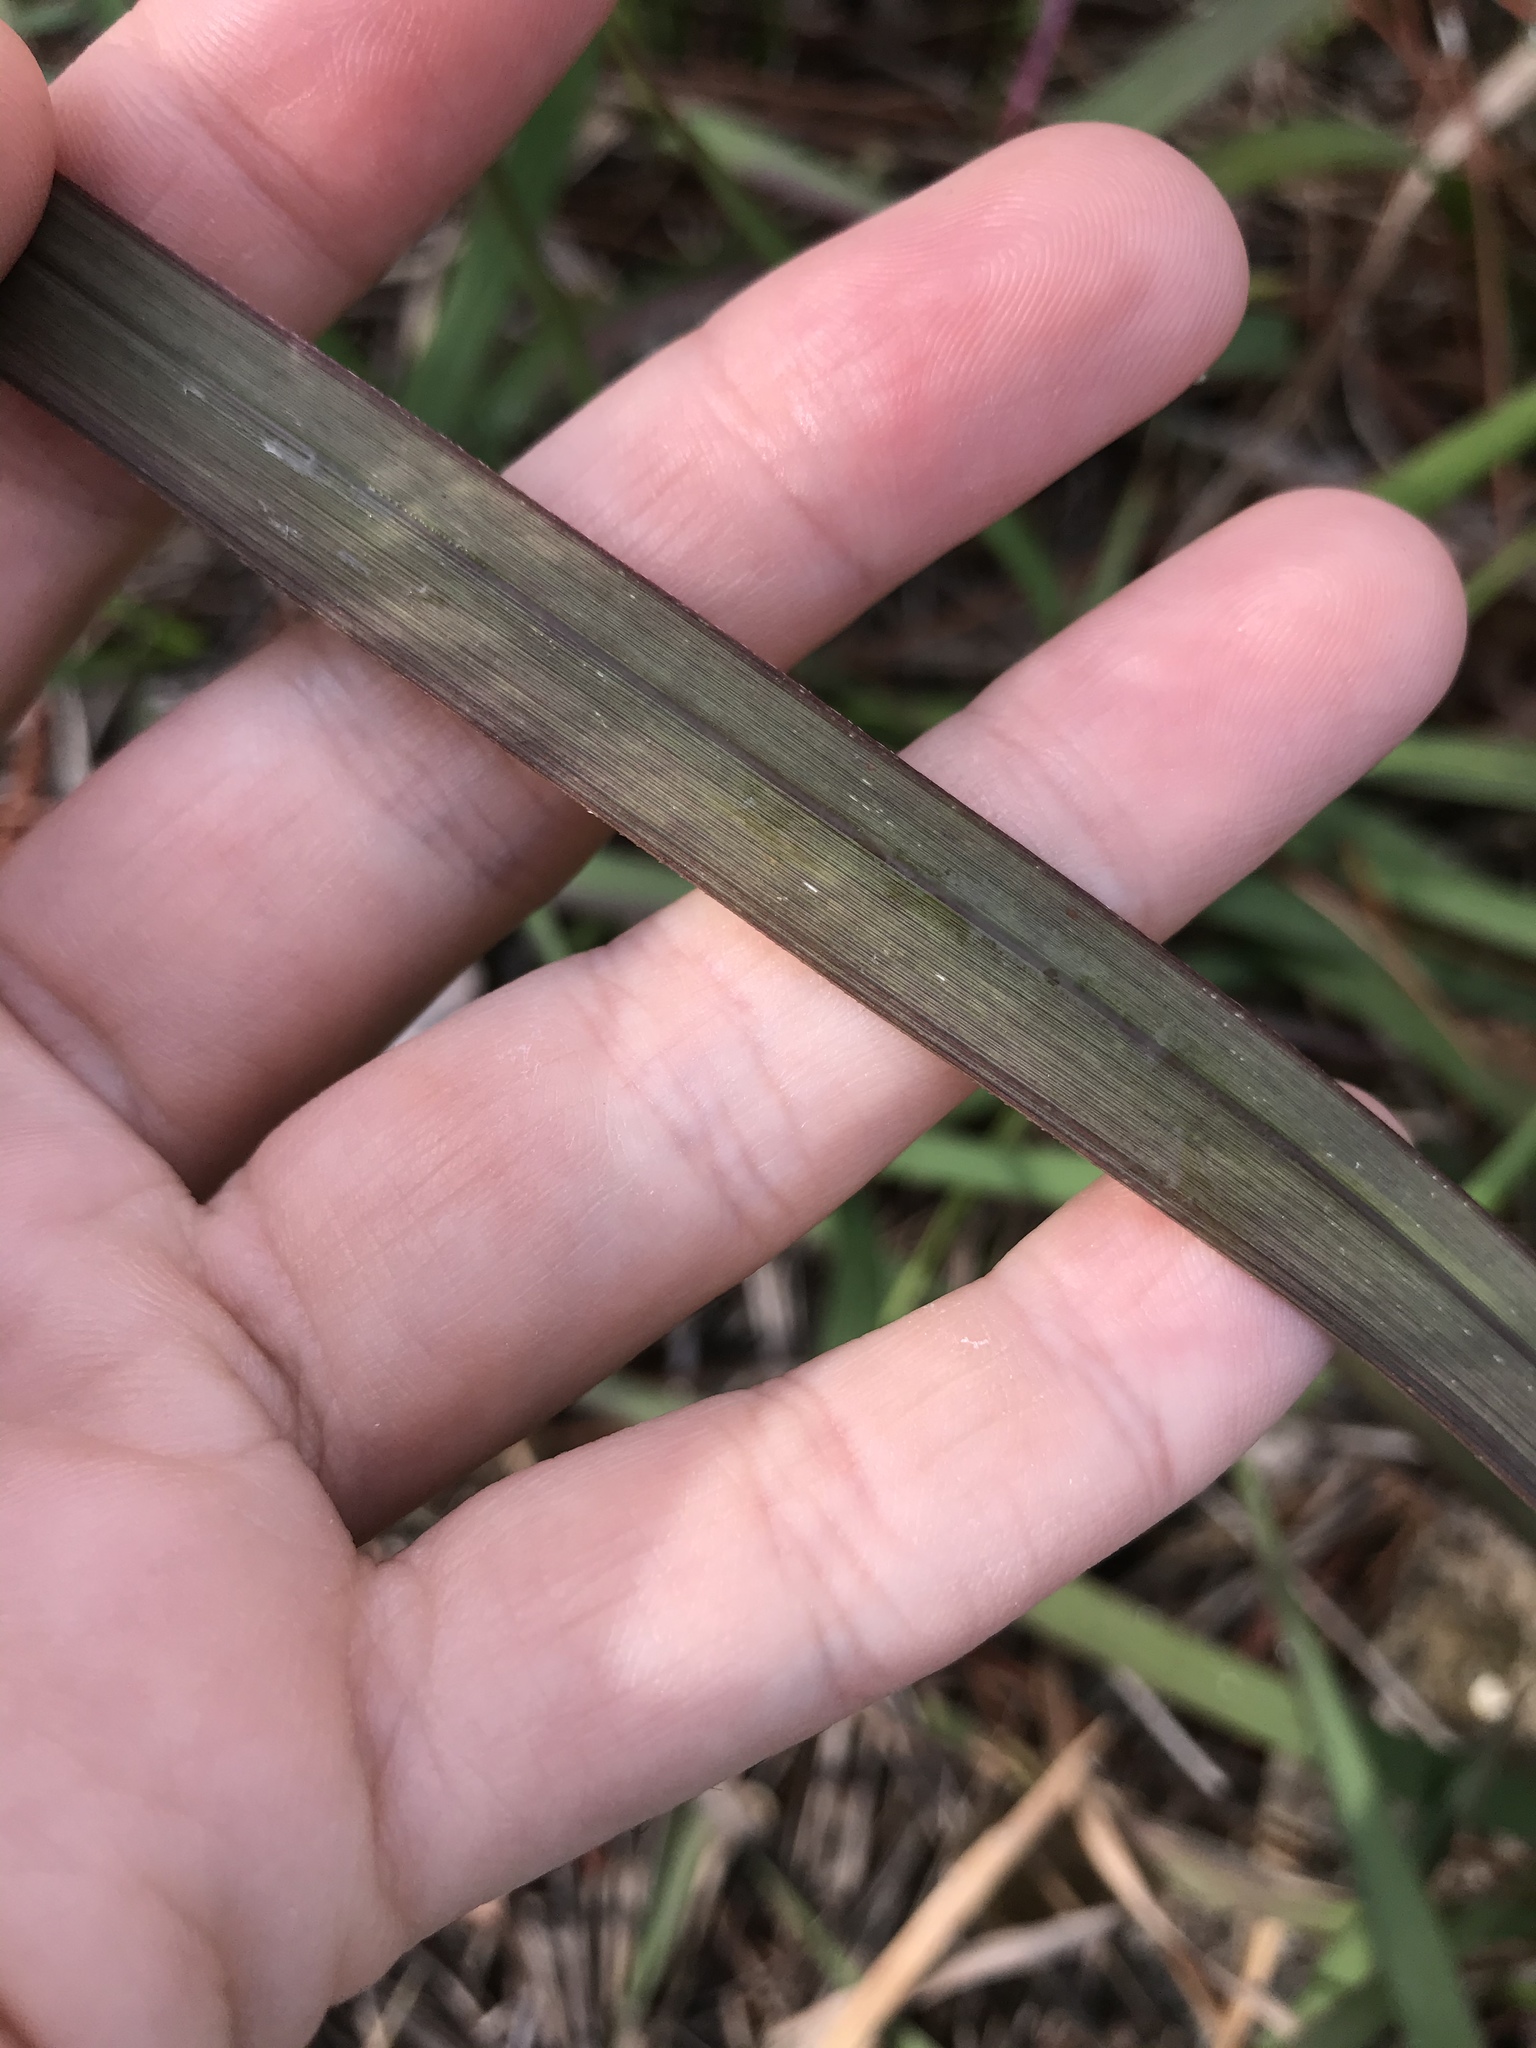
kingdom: Plantae
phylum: Tracheophyta
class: Liliopsida
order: Poales
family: Poaceae
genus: Imperata
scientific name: Imperata cylindrica
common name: Cogongrass
